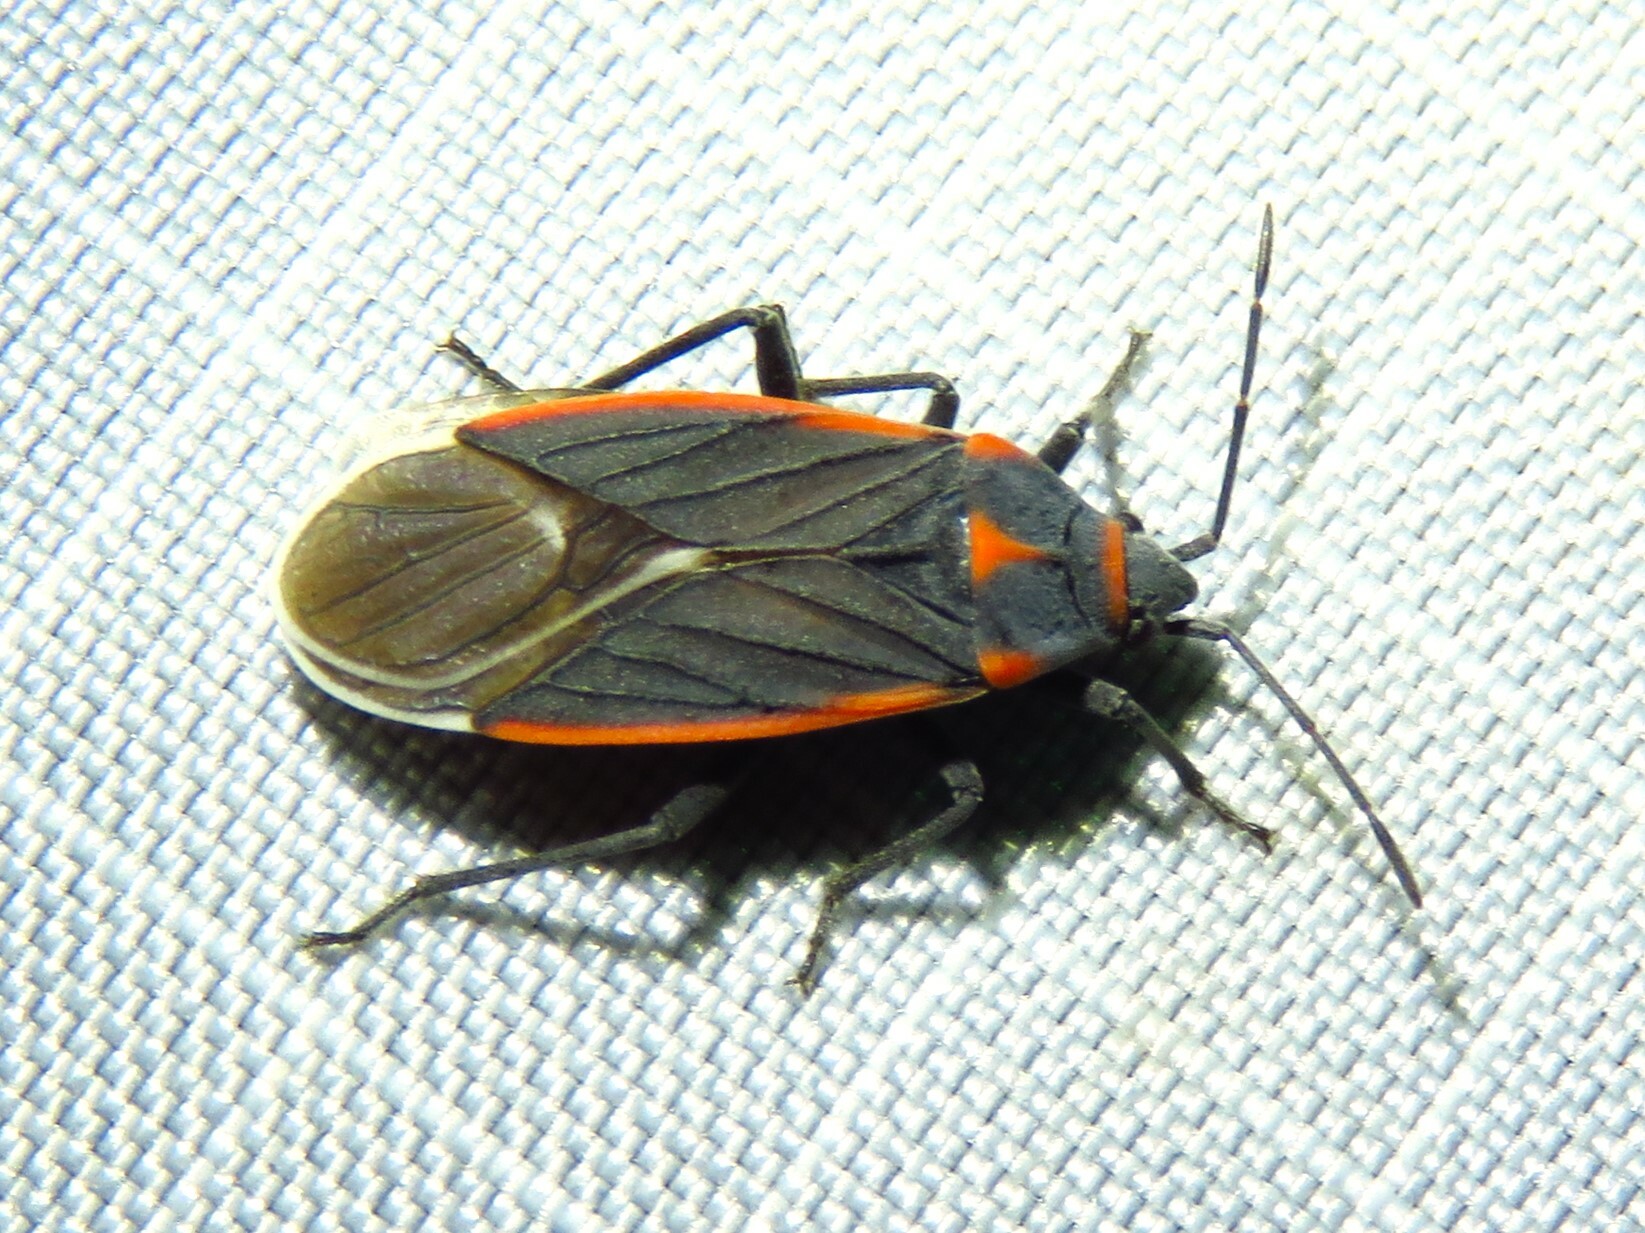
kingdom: Animalia
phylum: Arthropoda
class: Insecta
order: Hemiptera
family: Lygaeidae
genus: Melacoryphus
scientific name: Melacoryphus lateralis
